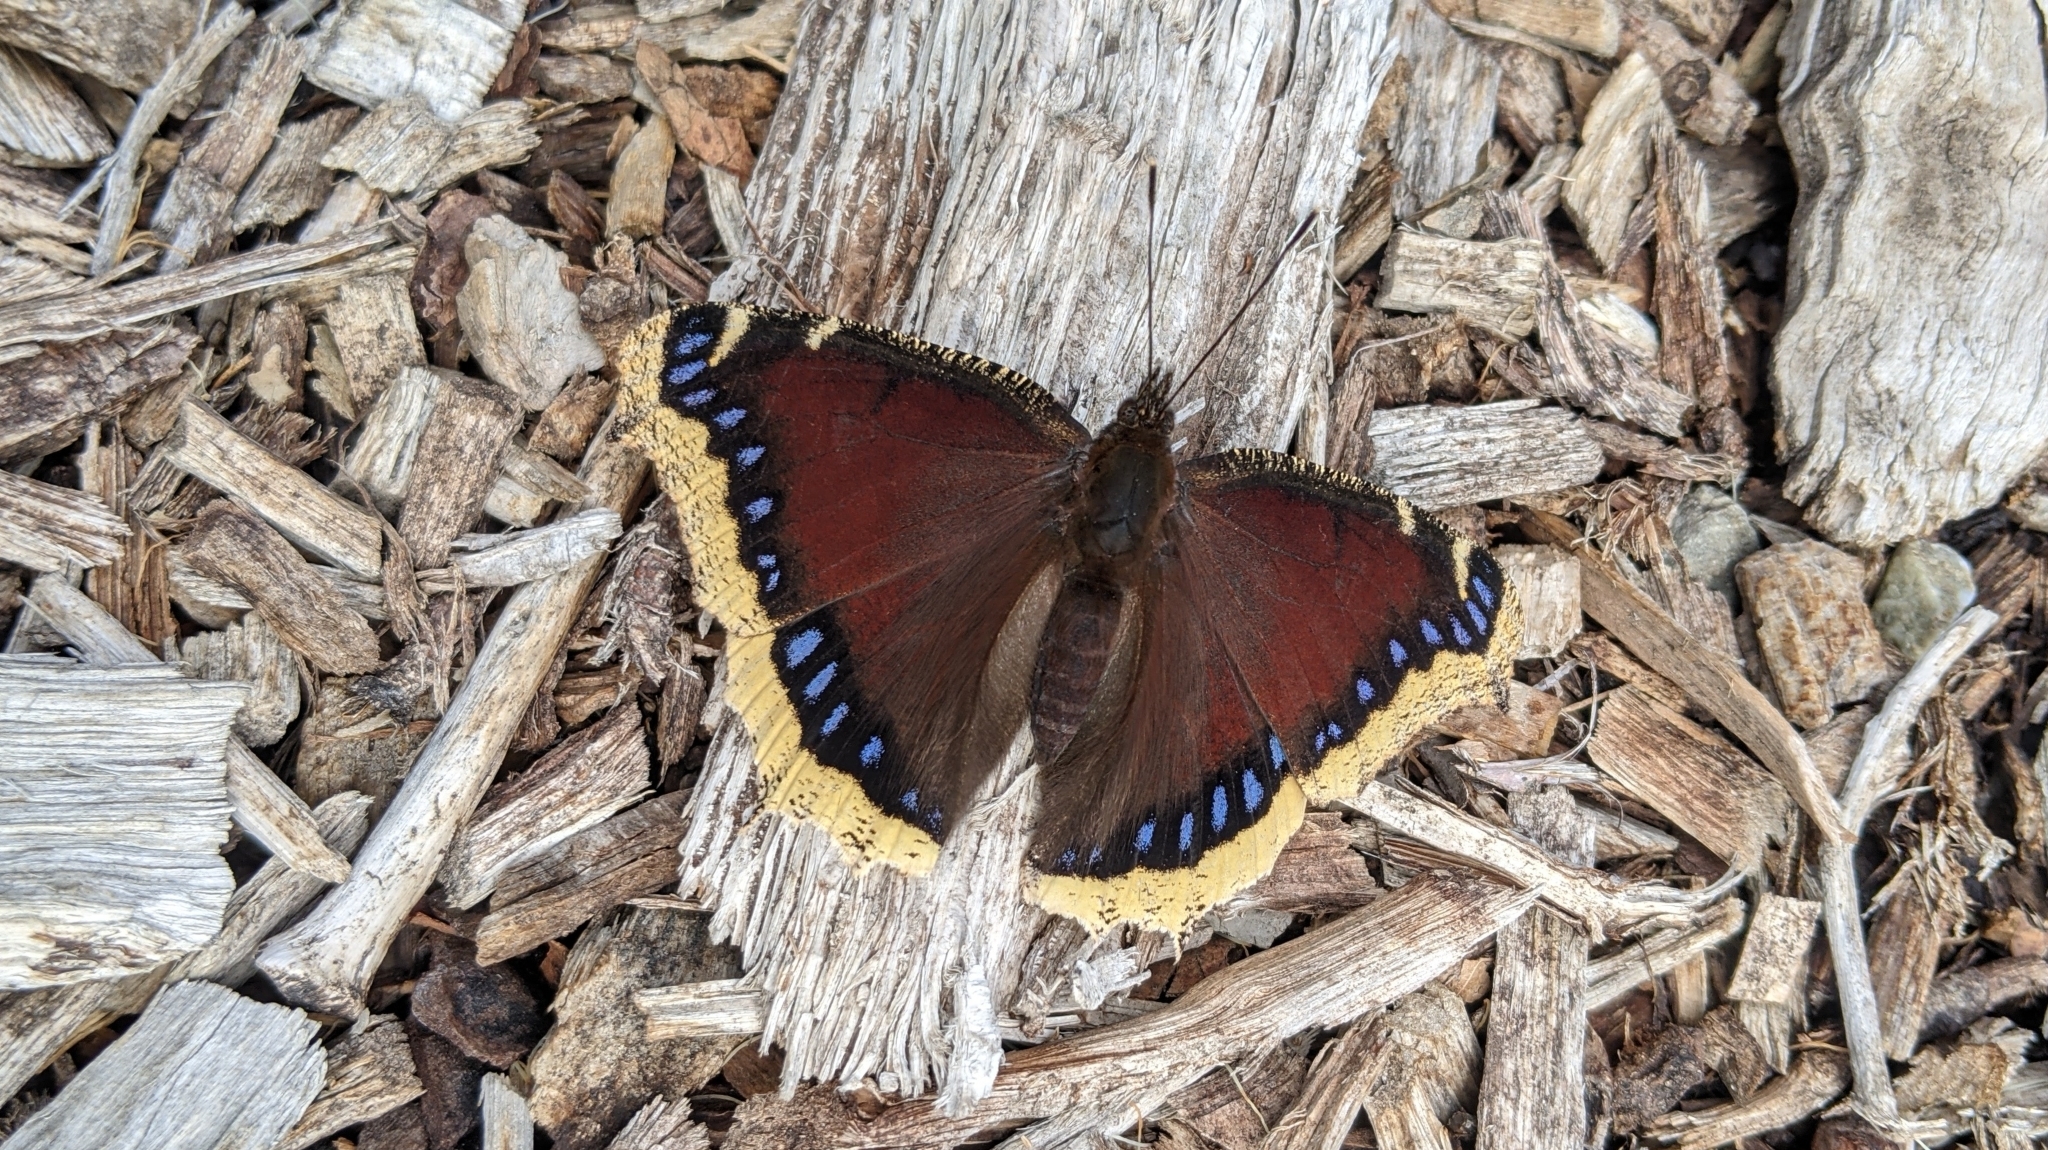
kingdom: Animalia
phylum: Arthropoda
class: Insecta
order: Lepidoptera
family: Nymphalidae
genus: Nymphalis
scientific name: Nymphalis antiopa
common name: Camberwell beauty
